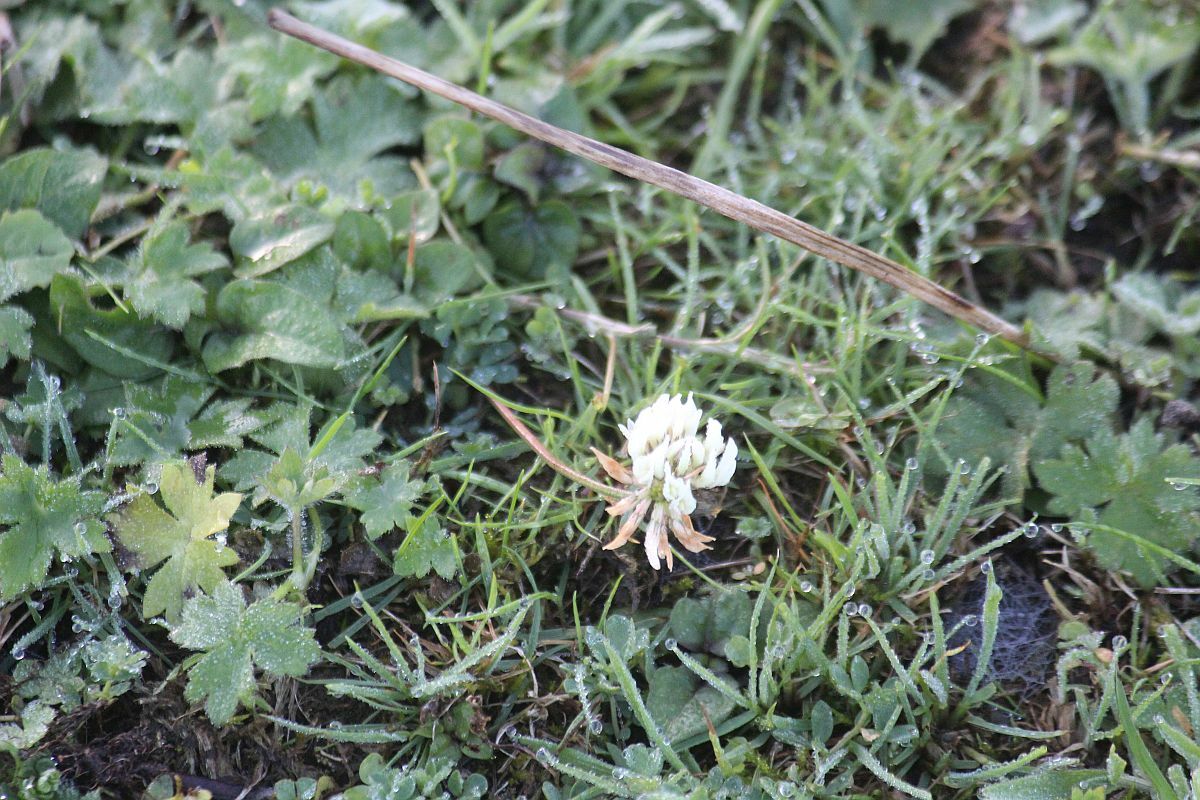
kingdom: Plantae
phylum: Tracheophyta
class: Magnoliopsida
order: Fabales
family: Fabaceae
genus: Trifolium
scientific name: Trifolium repens
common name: White clover
